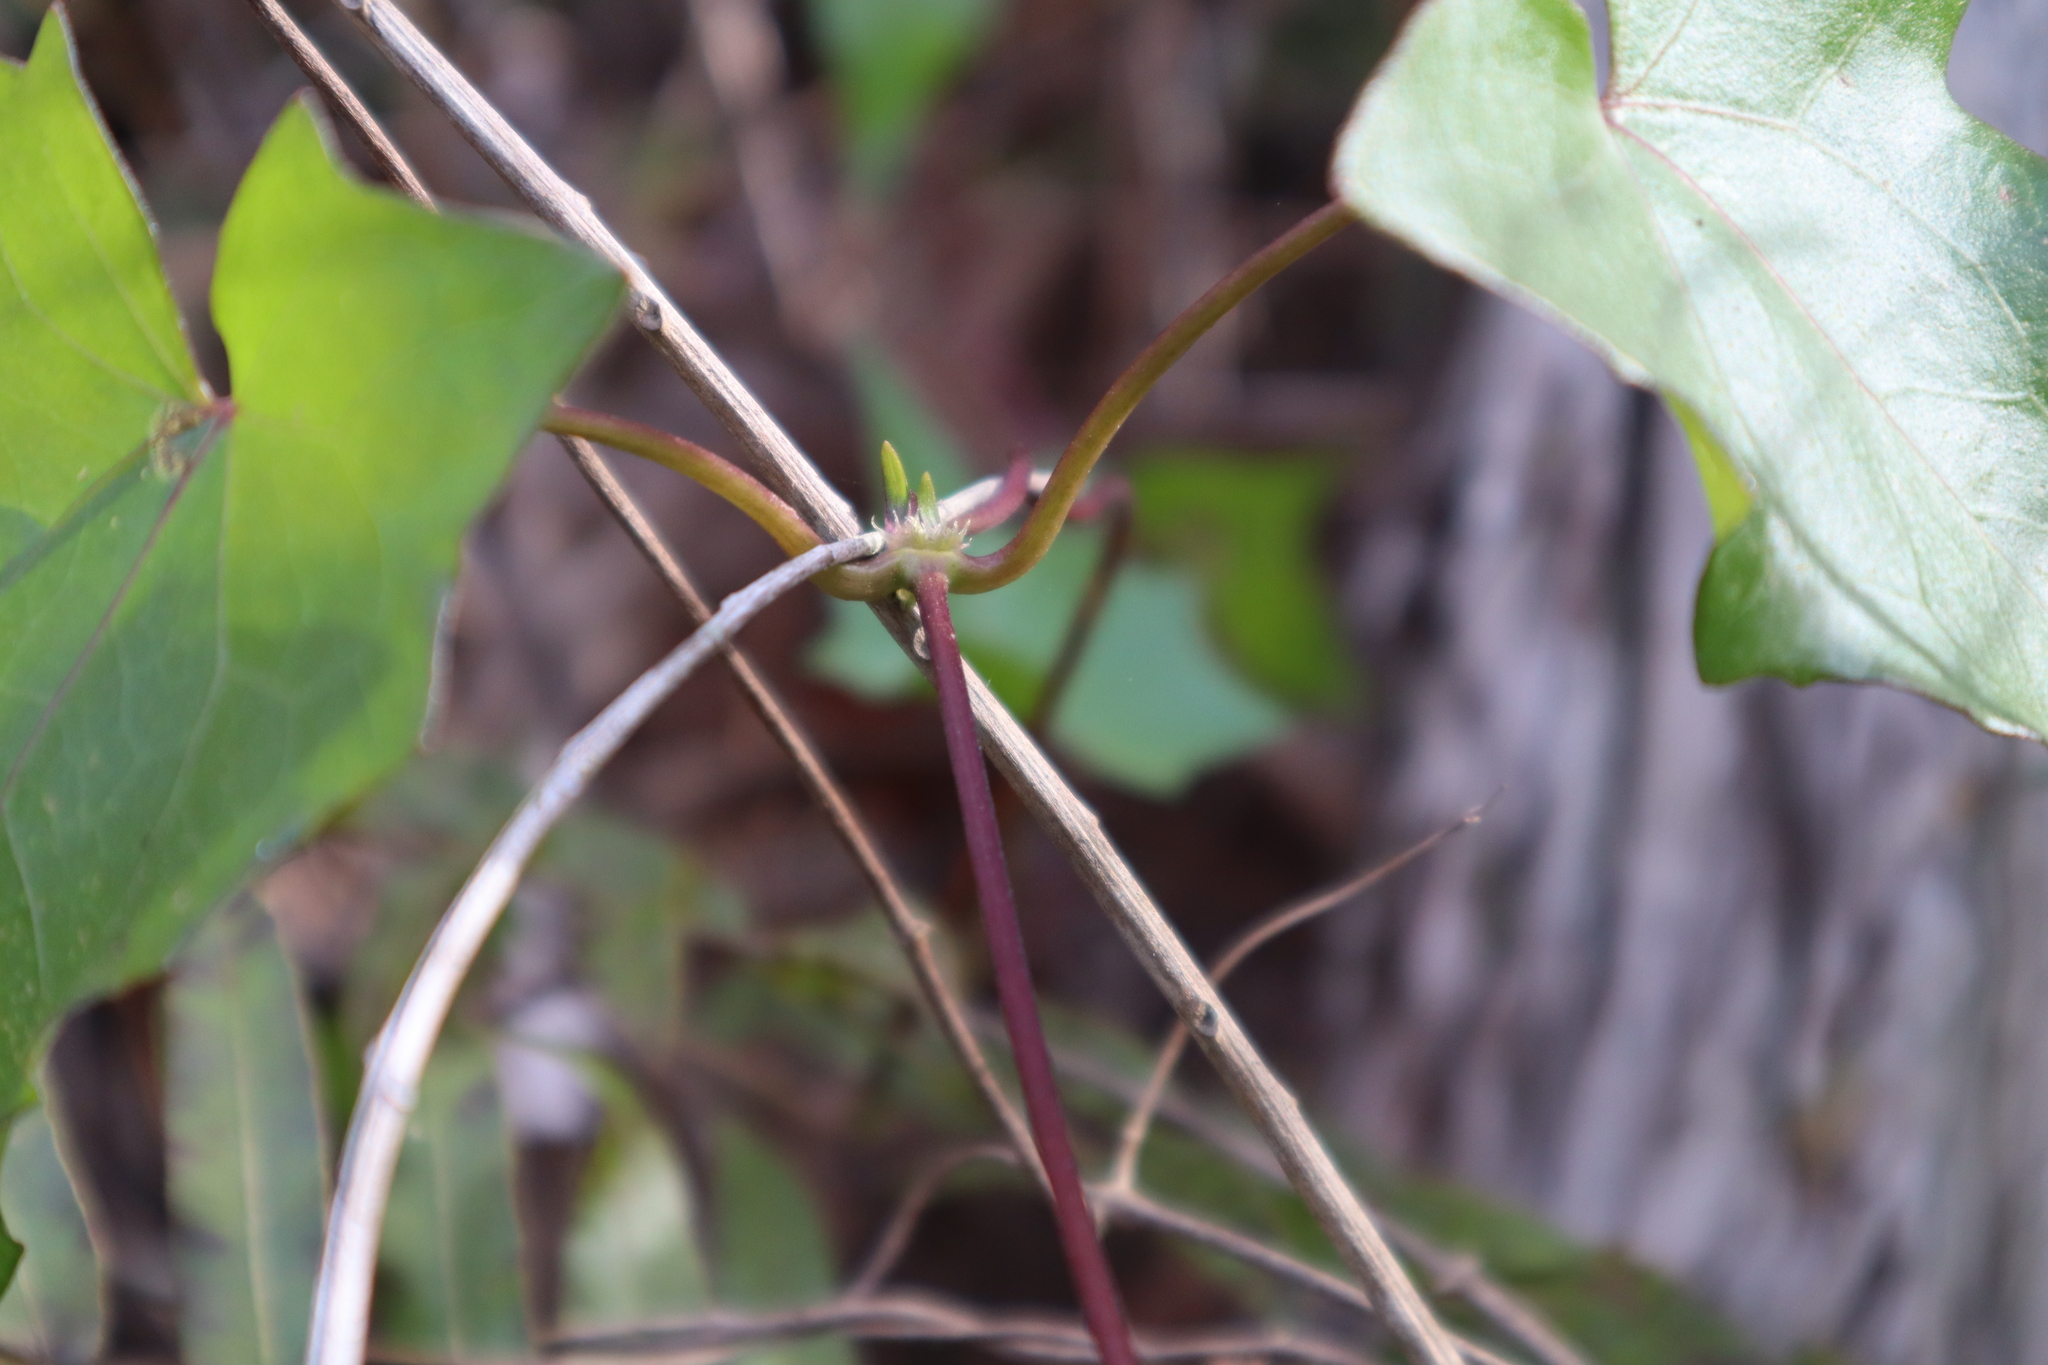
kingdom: Plantae
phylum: Tracheophyta
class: Magnoliopsida
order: Asterales
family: Asteraceae
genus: Mikania
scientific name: Mikania scandens
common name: Climbing hempvine
